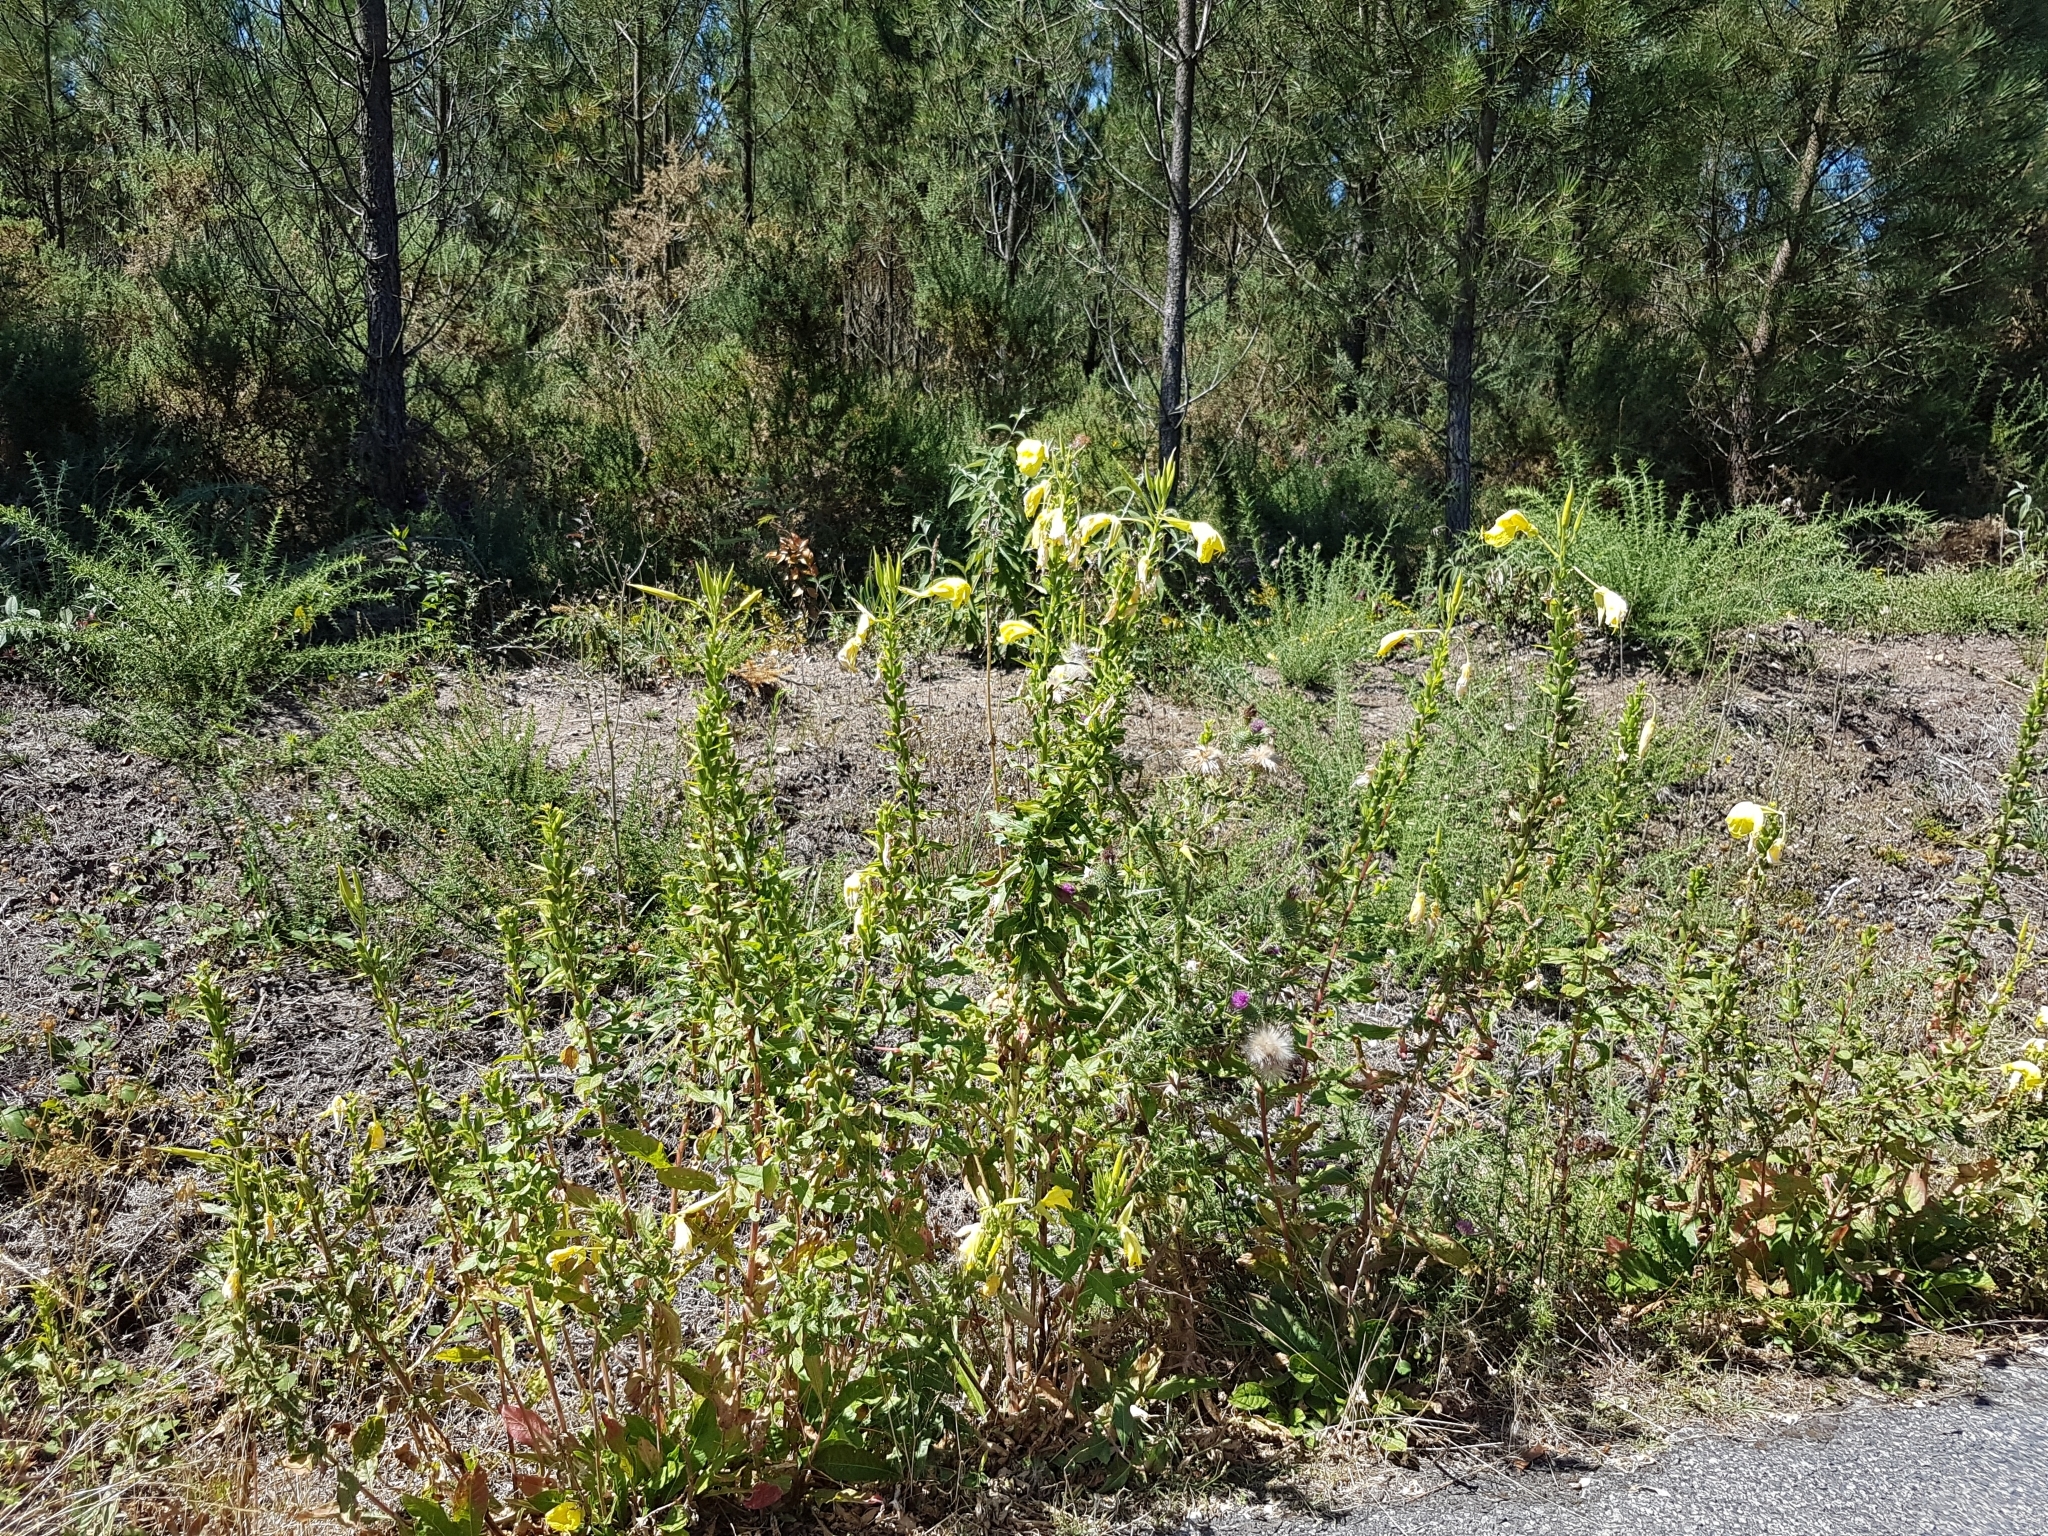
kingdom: Plantae
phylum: Tracheophyta
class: Magnoliopsida
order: Myrtales
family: Onagraceae
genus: Oenothera
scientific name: Oenothera glazioviana
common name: Large-flowered evening-primrose
